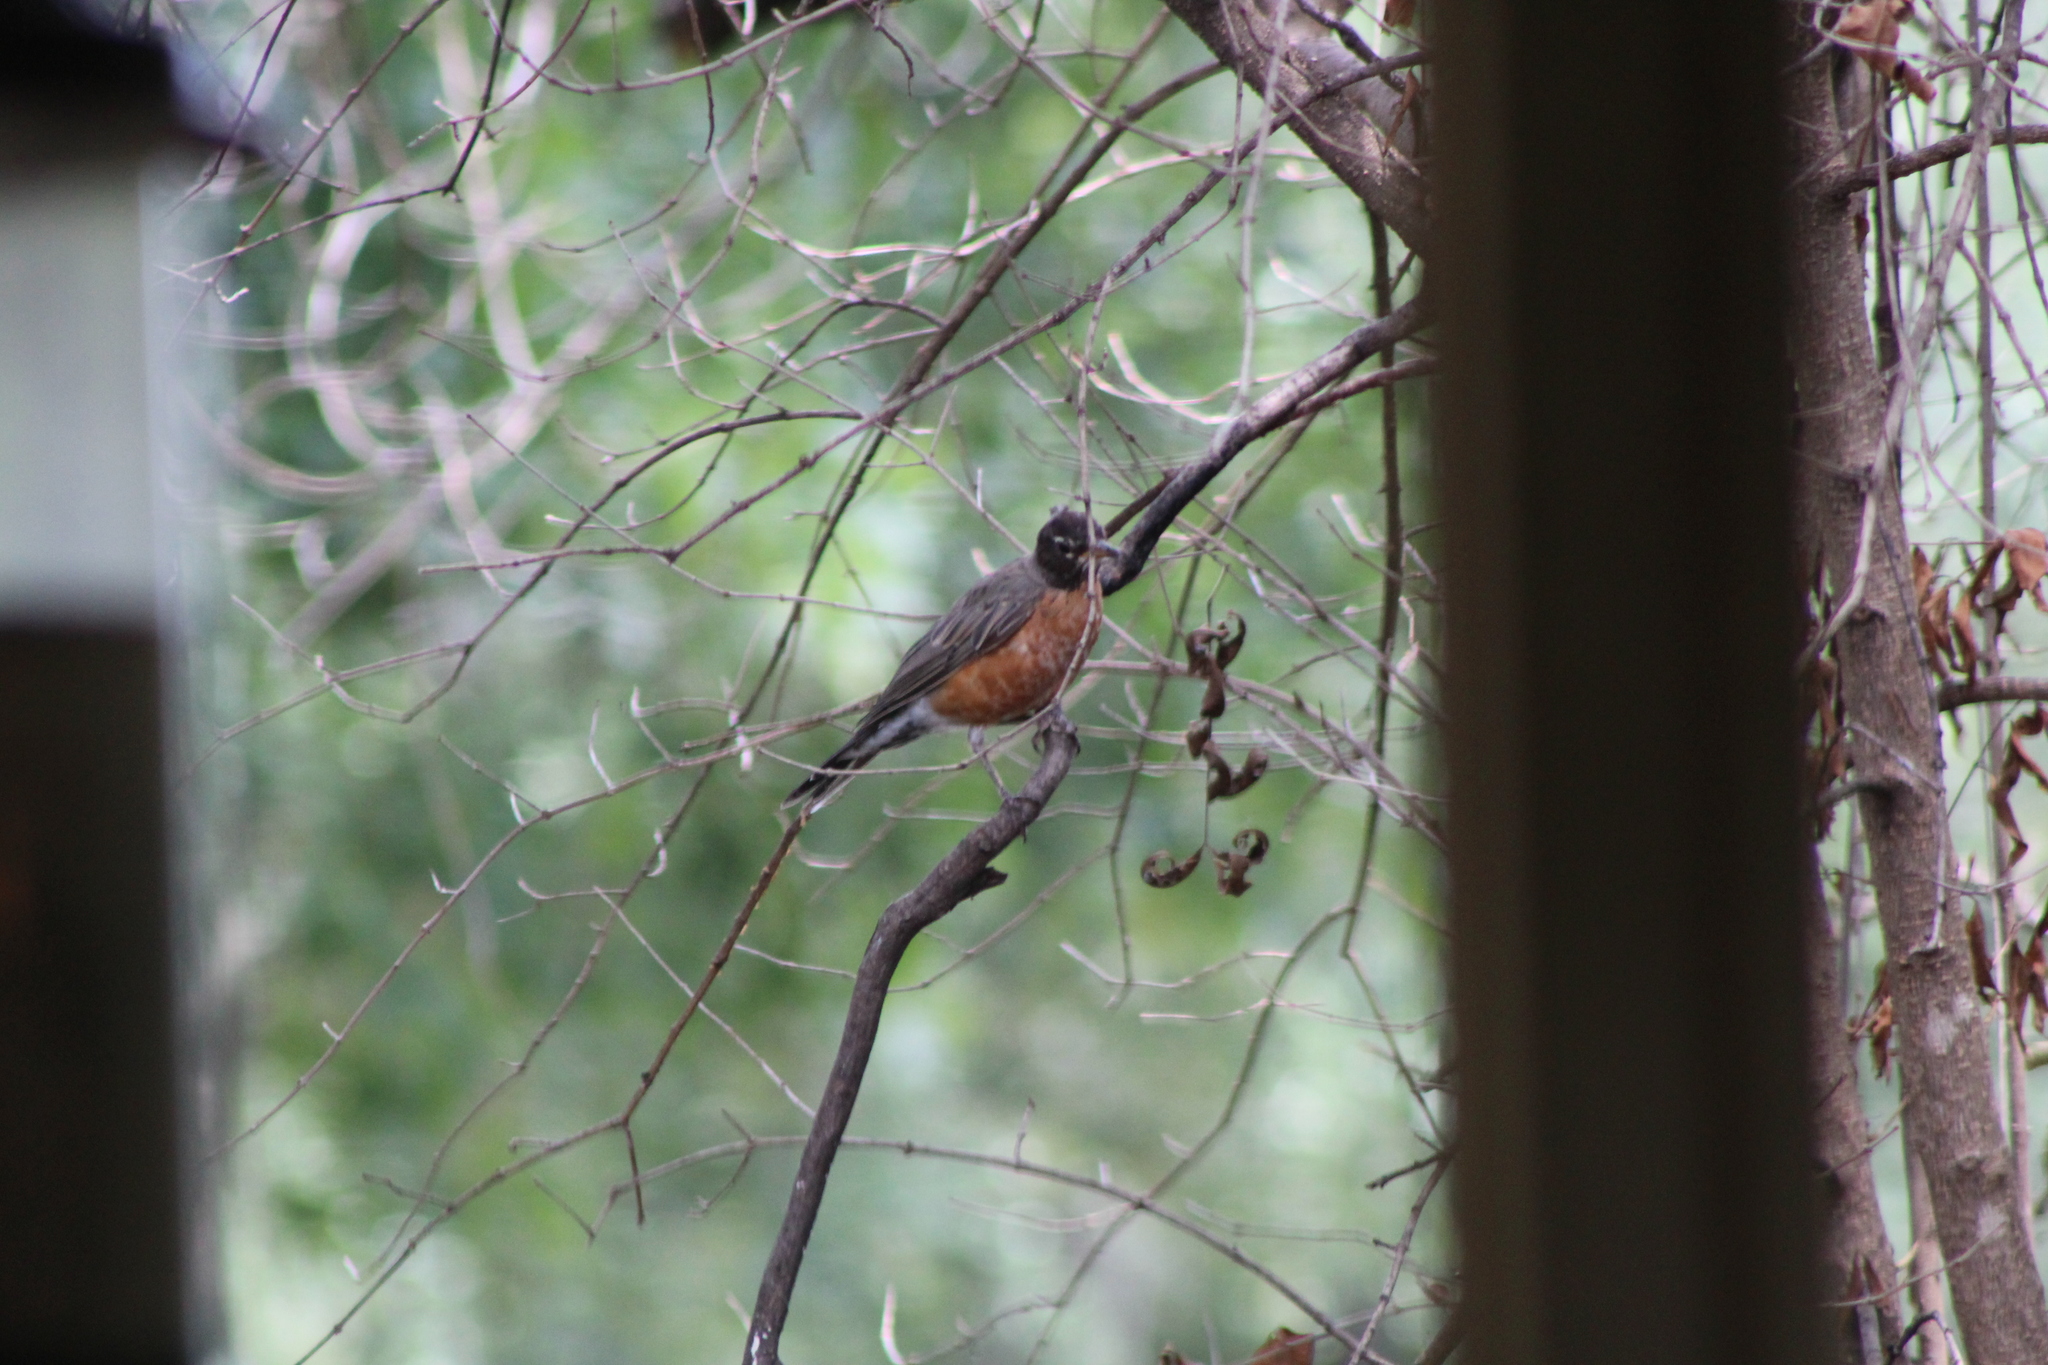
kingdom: Animalia
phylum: Chordata
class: Aves
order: Passeriformes
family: Turdidae
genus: Turdus
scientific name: Turdus migratorius
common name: American robin
